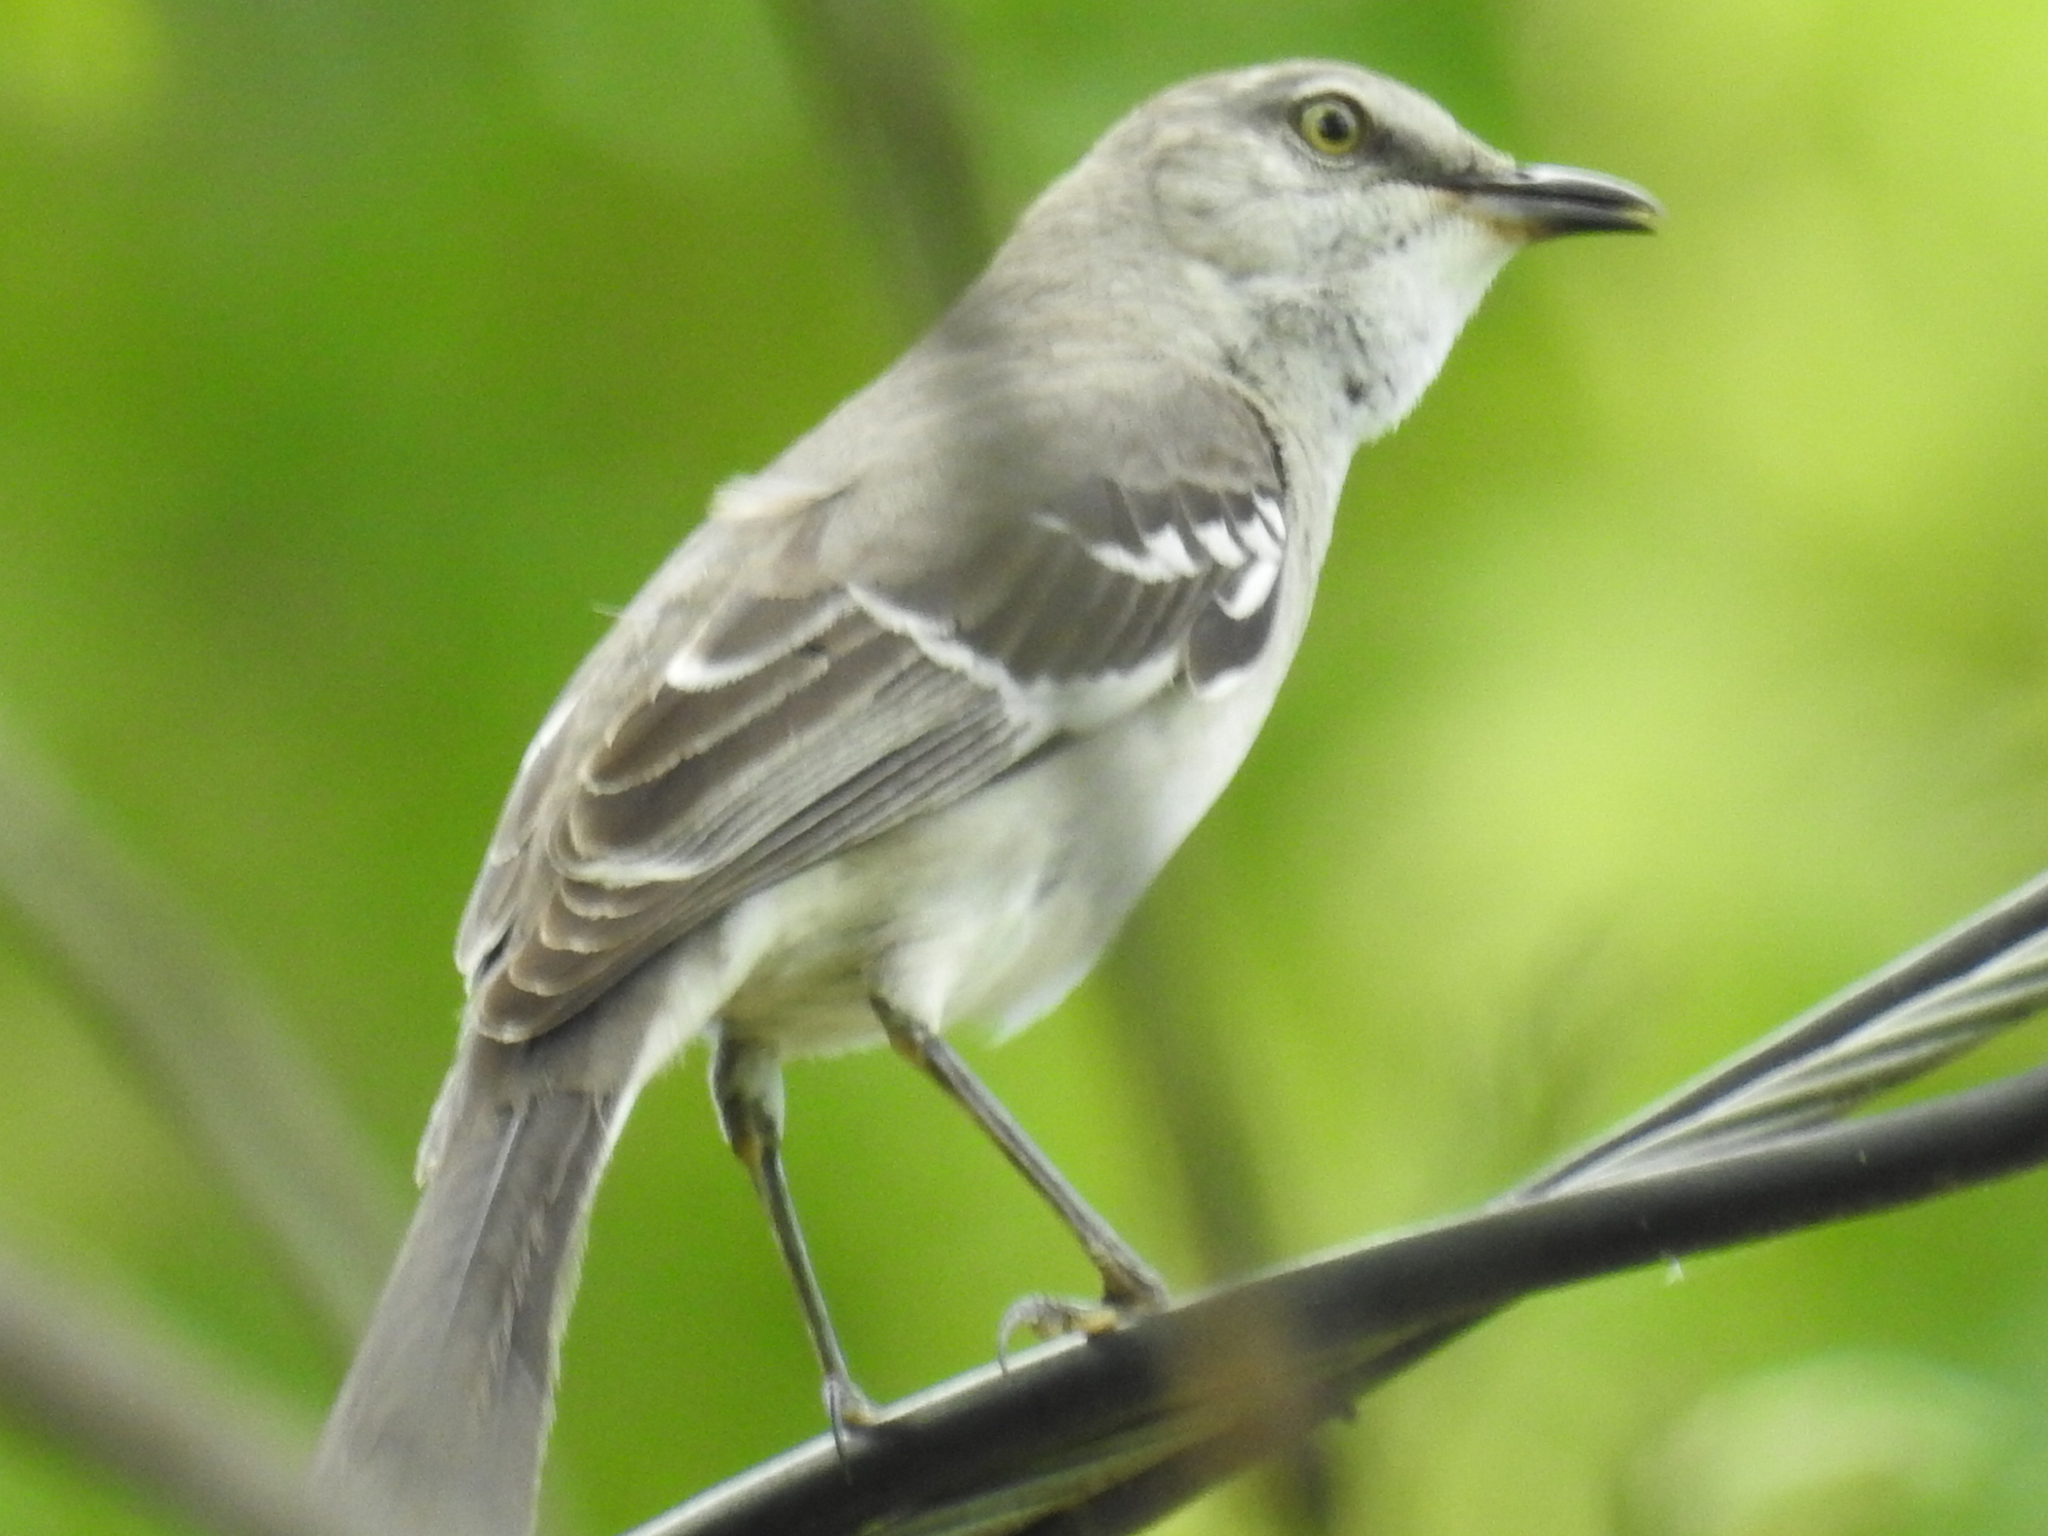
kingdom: Animalia
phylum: Chordata
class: Aves
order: Passeriformes
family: Mimidae
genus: Mimus
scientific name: Mimus polyglottos
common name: Northern mockingbird
